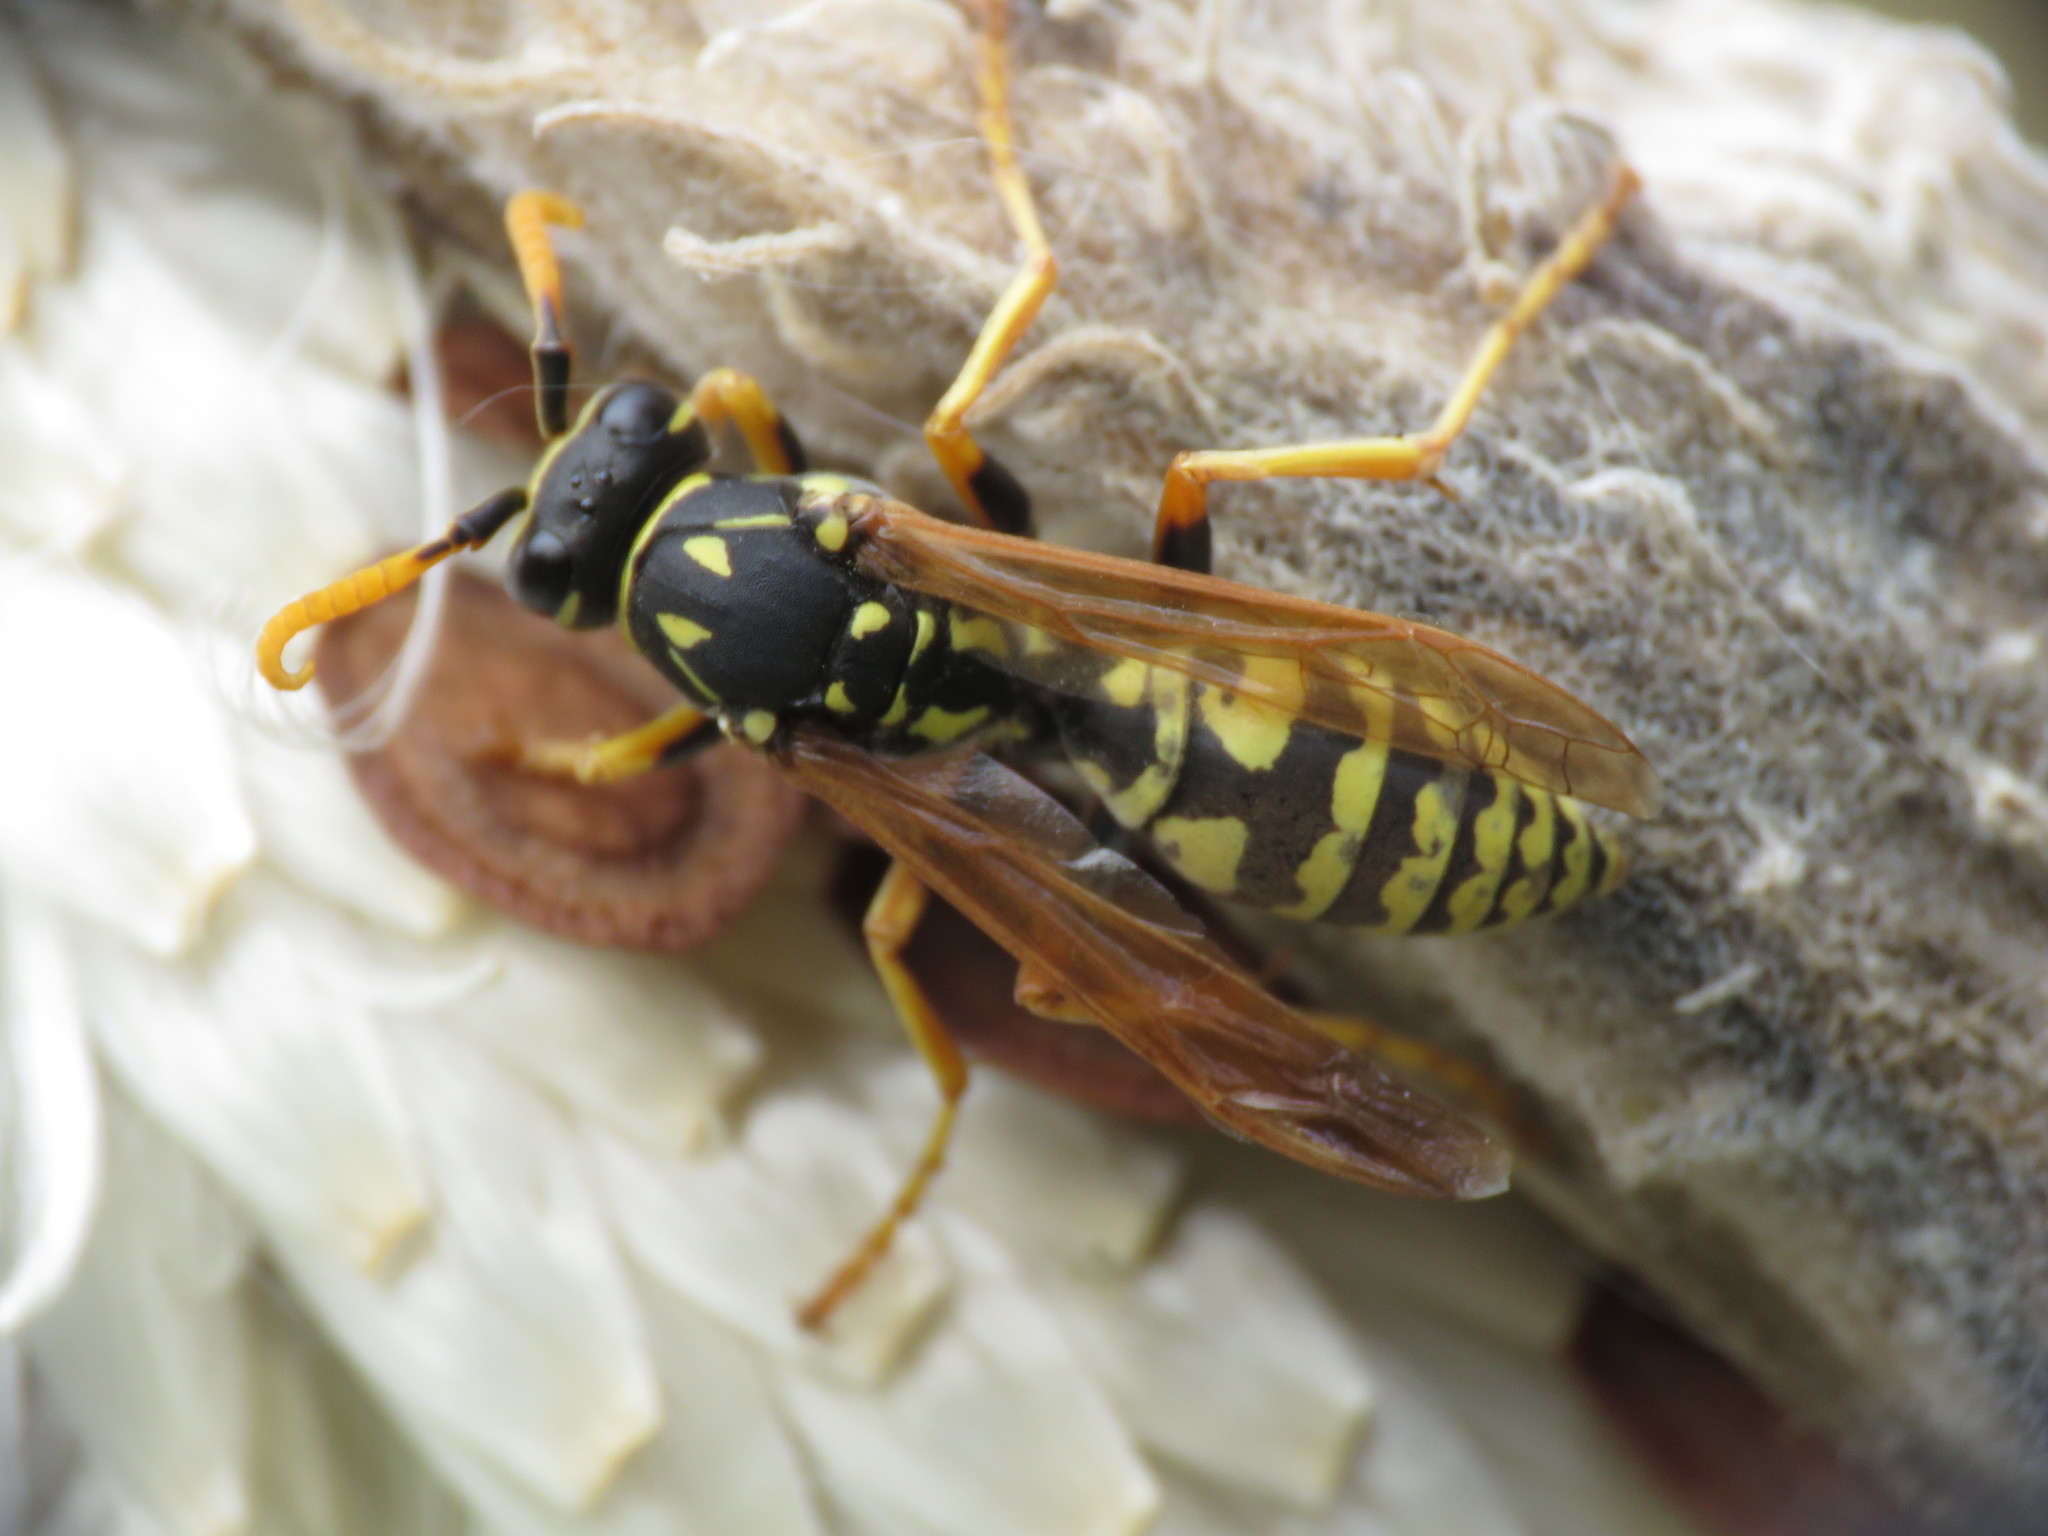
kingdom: Animalia
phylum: Arthropoda
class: Insecta
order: Hymenoptera
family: Eumenidae
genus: Polistes
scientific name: Polistes dominula
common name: Paper wasp
